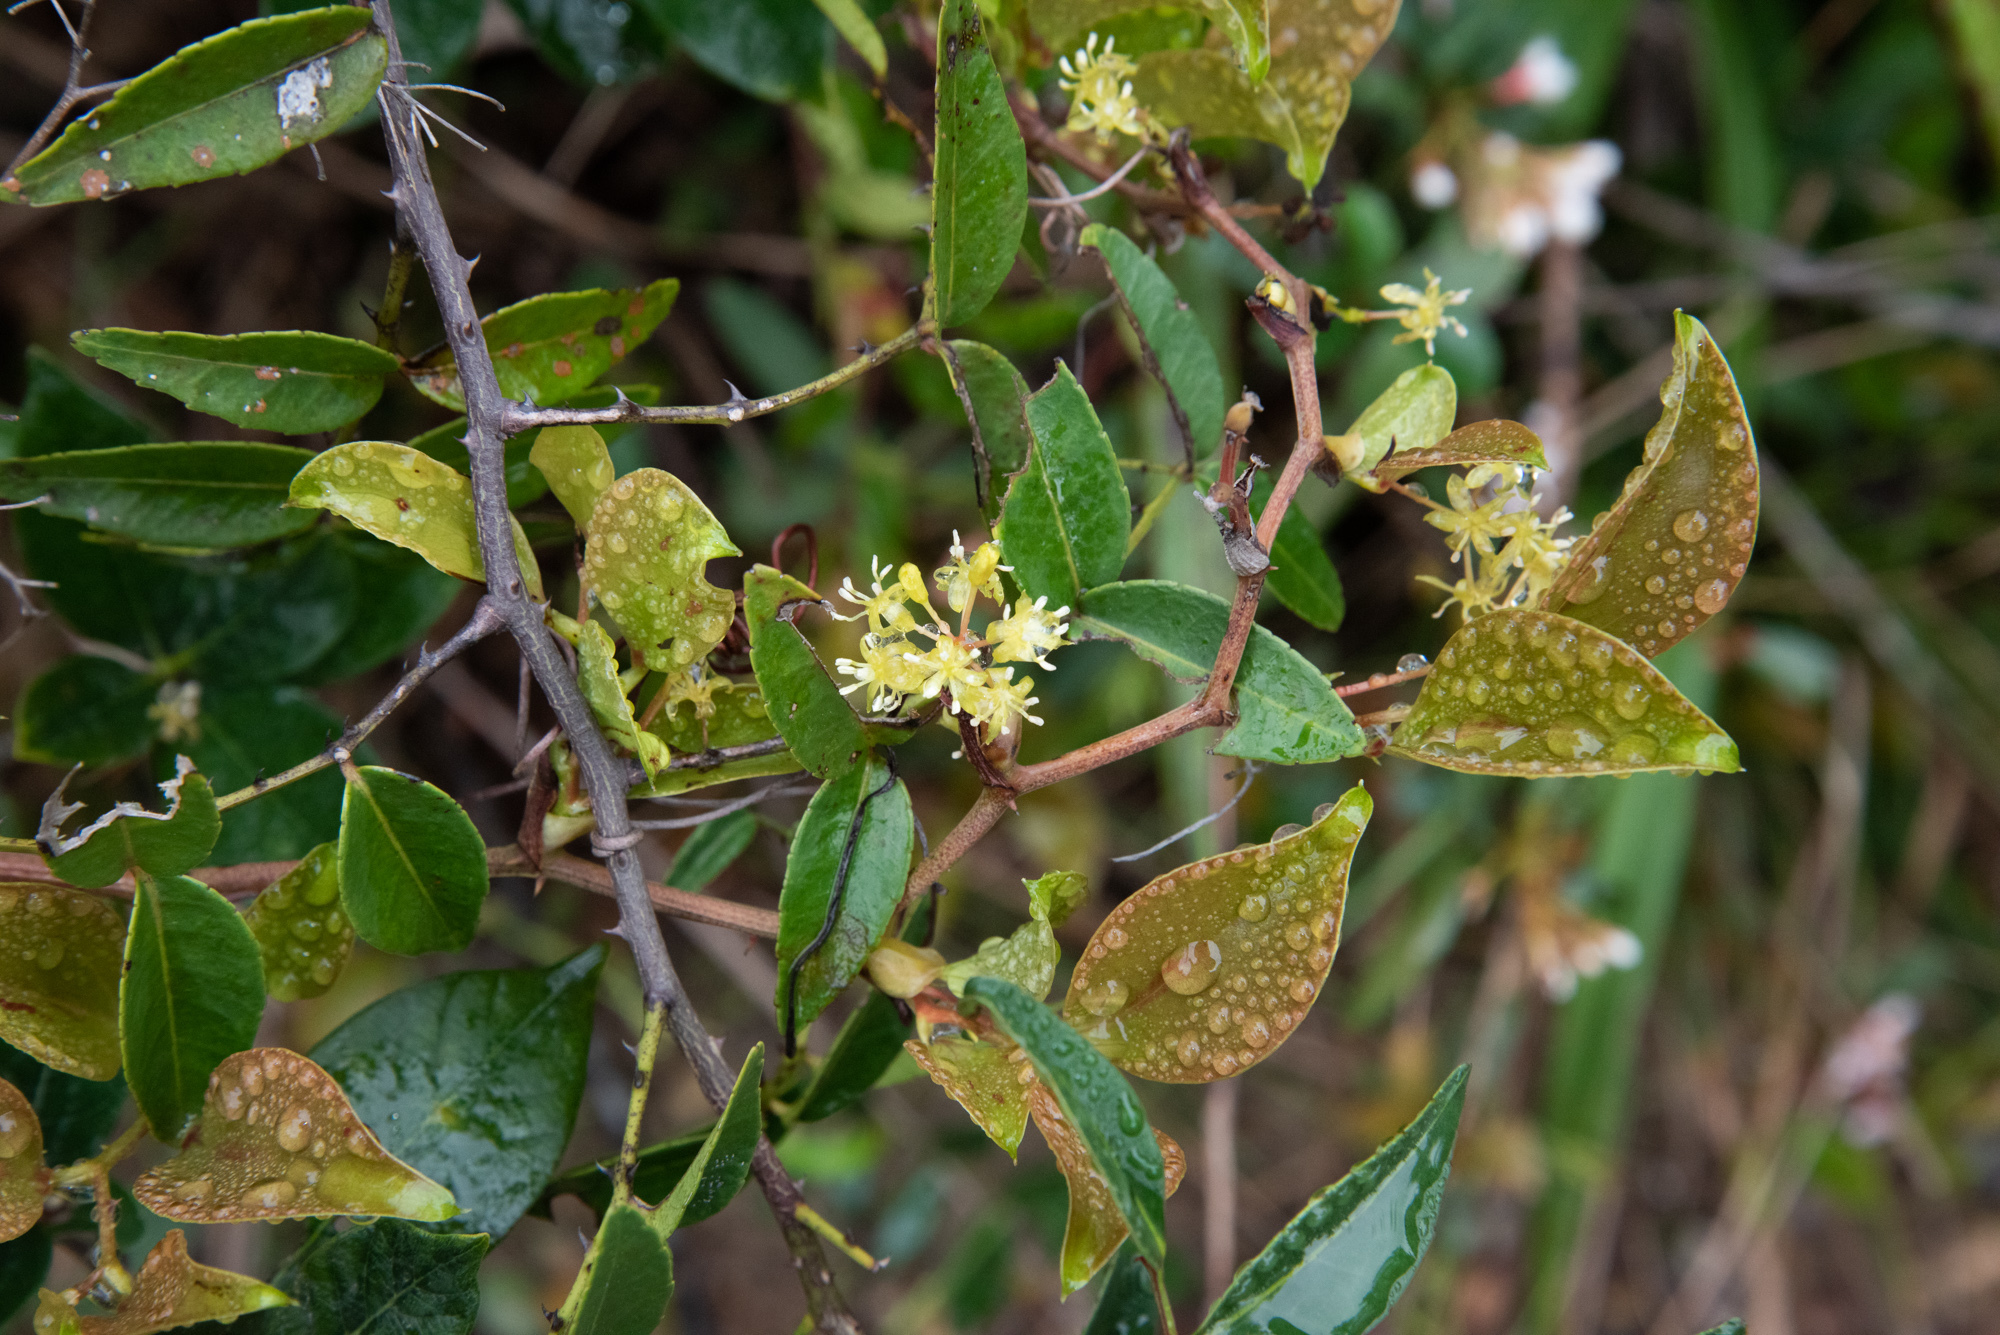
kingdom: Plantae
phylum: Tracheophyta
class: Liliopsida
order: Liliales
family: Smilacaceae
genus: Smilax
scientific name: Smilax china
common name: Chinaroot
